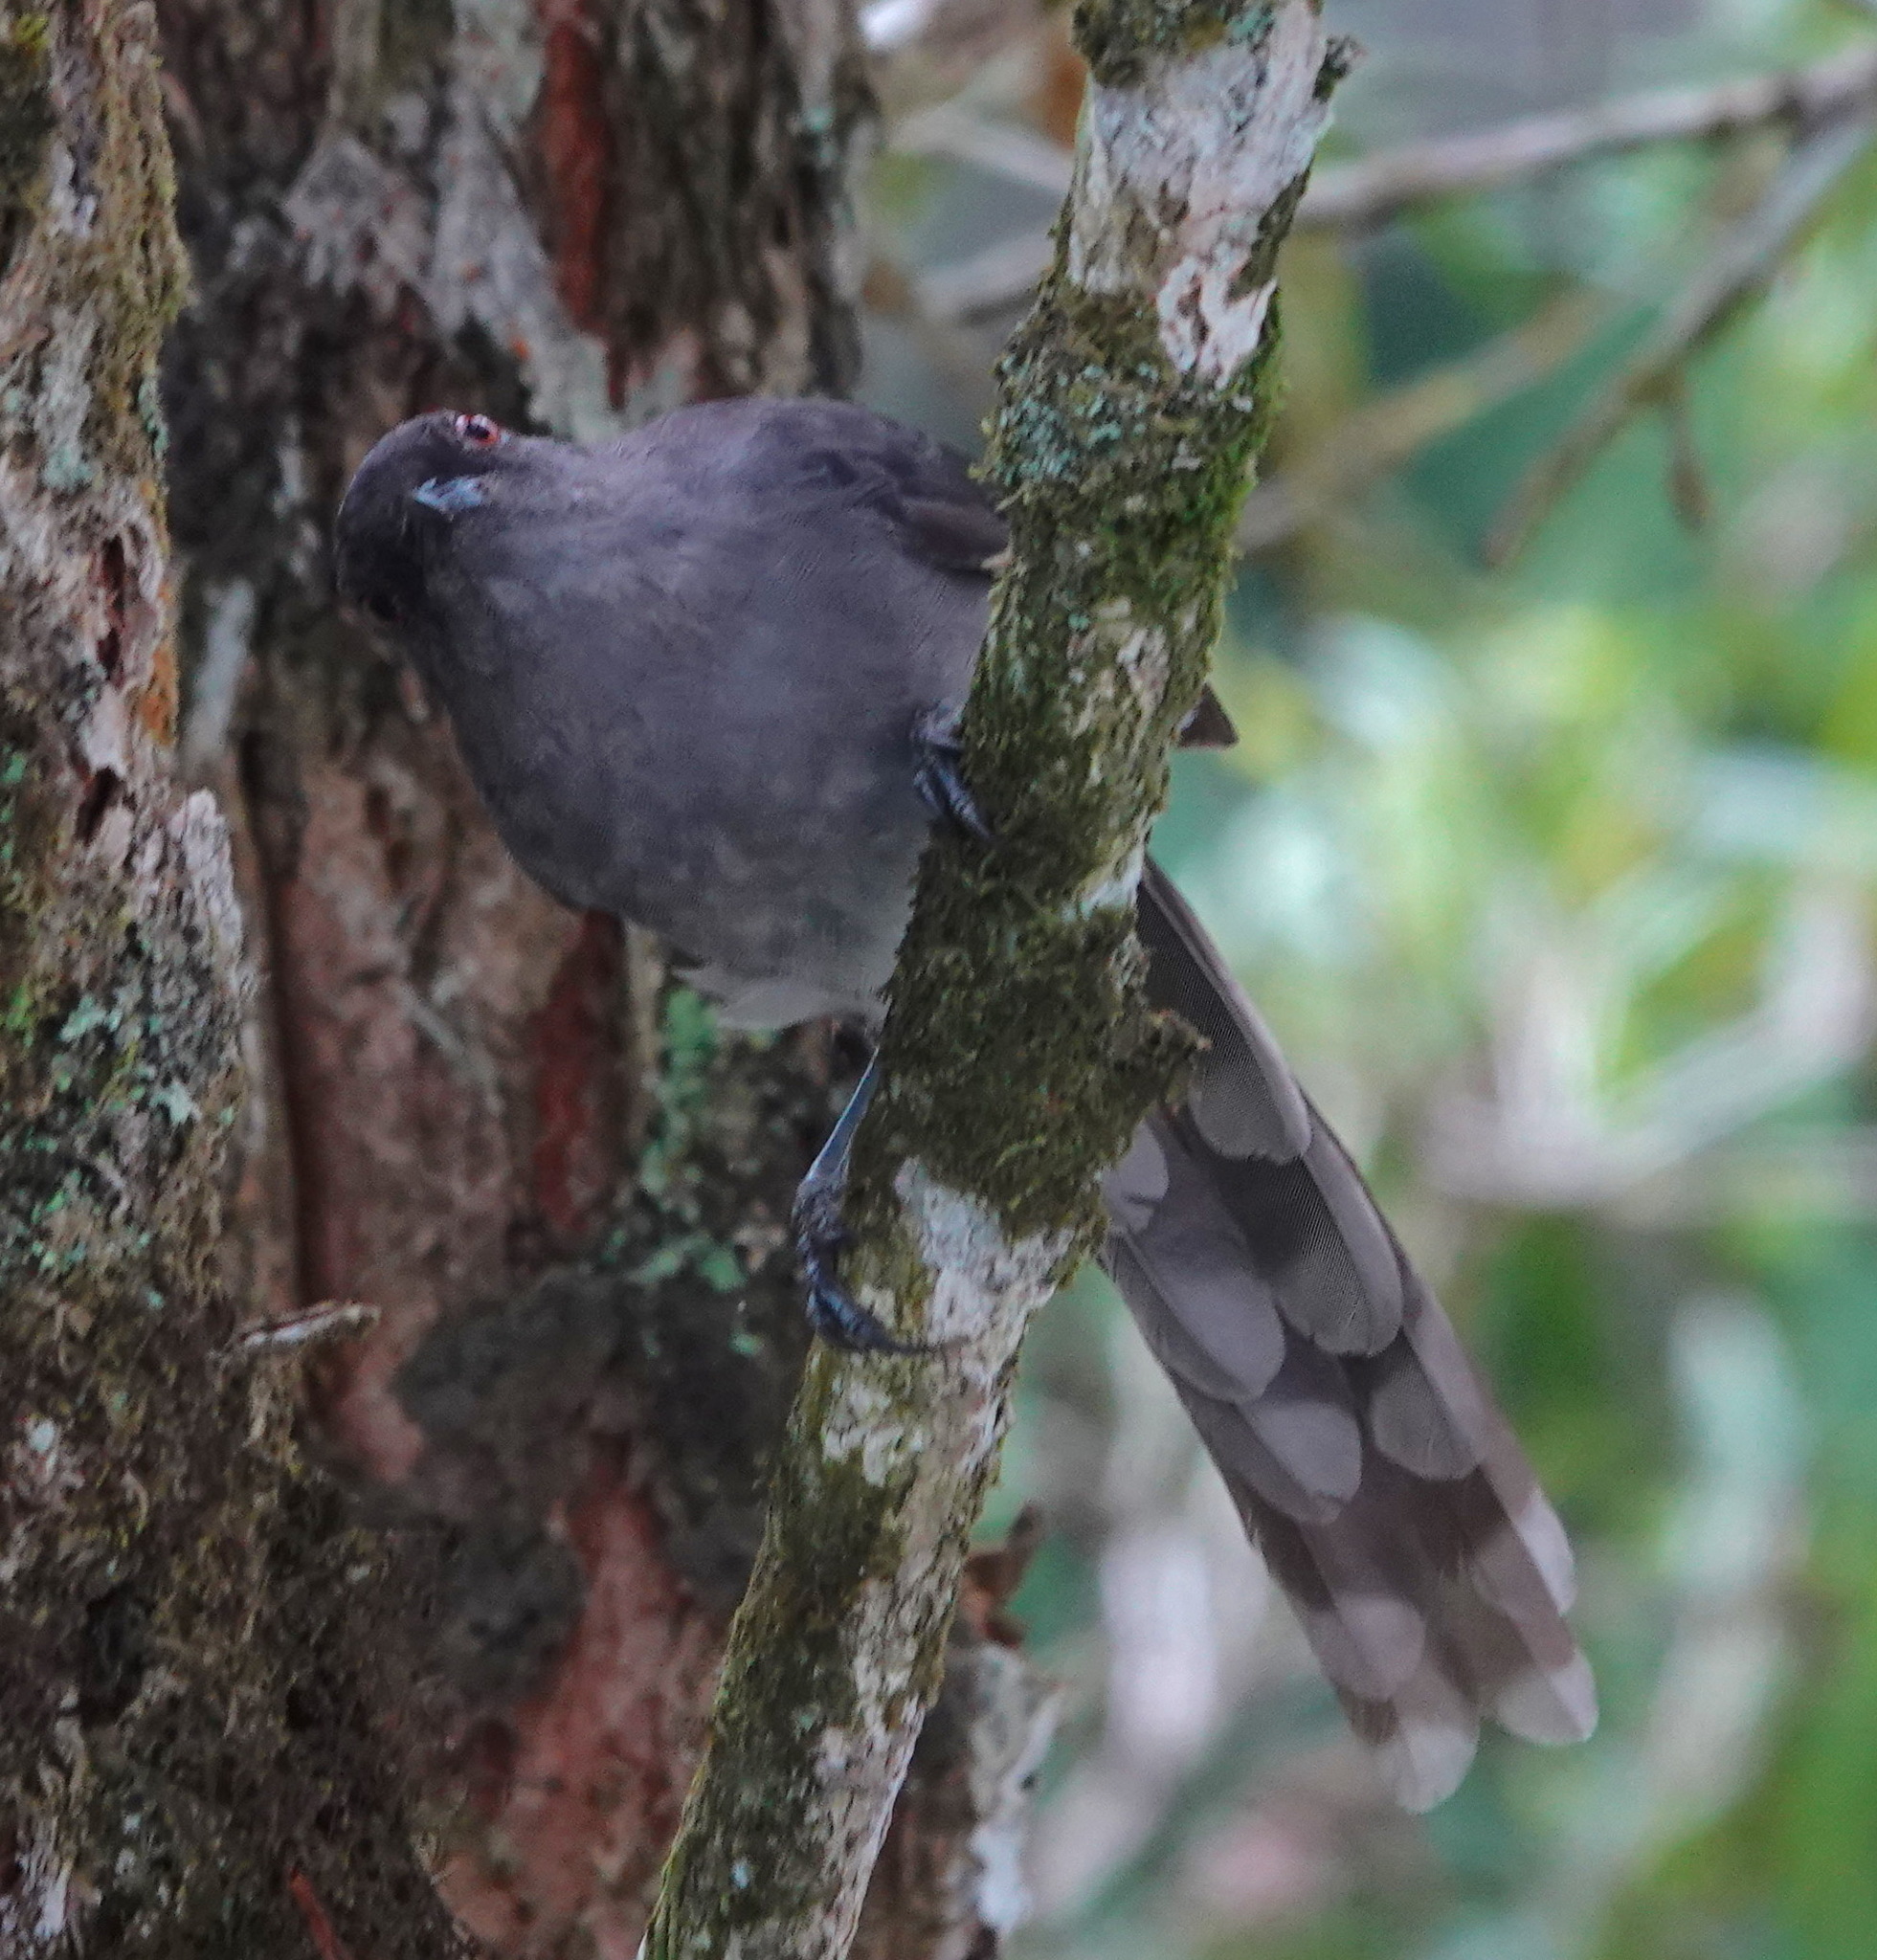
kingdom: Animalia
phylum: Chordata
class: Aves
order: Passeriformes
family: Leiothrichidae
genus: Heterophasia
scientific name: Heterophasia picaoides
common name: Long-tailed sibia
